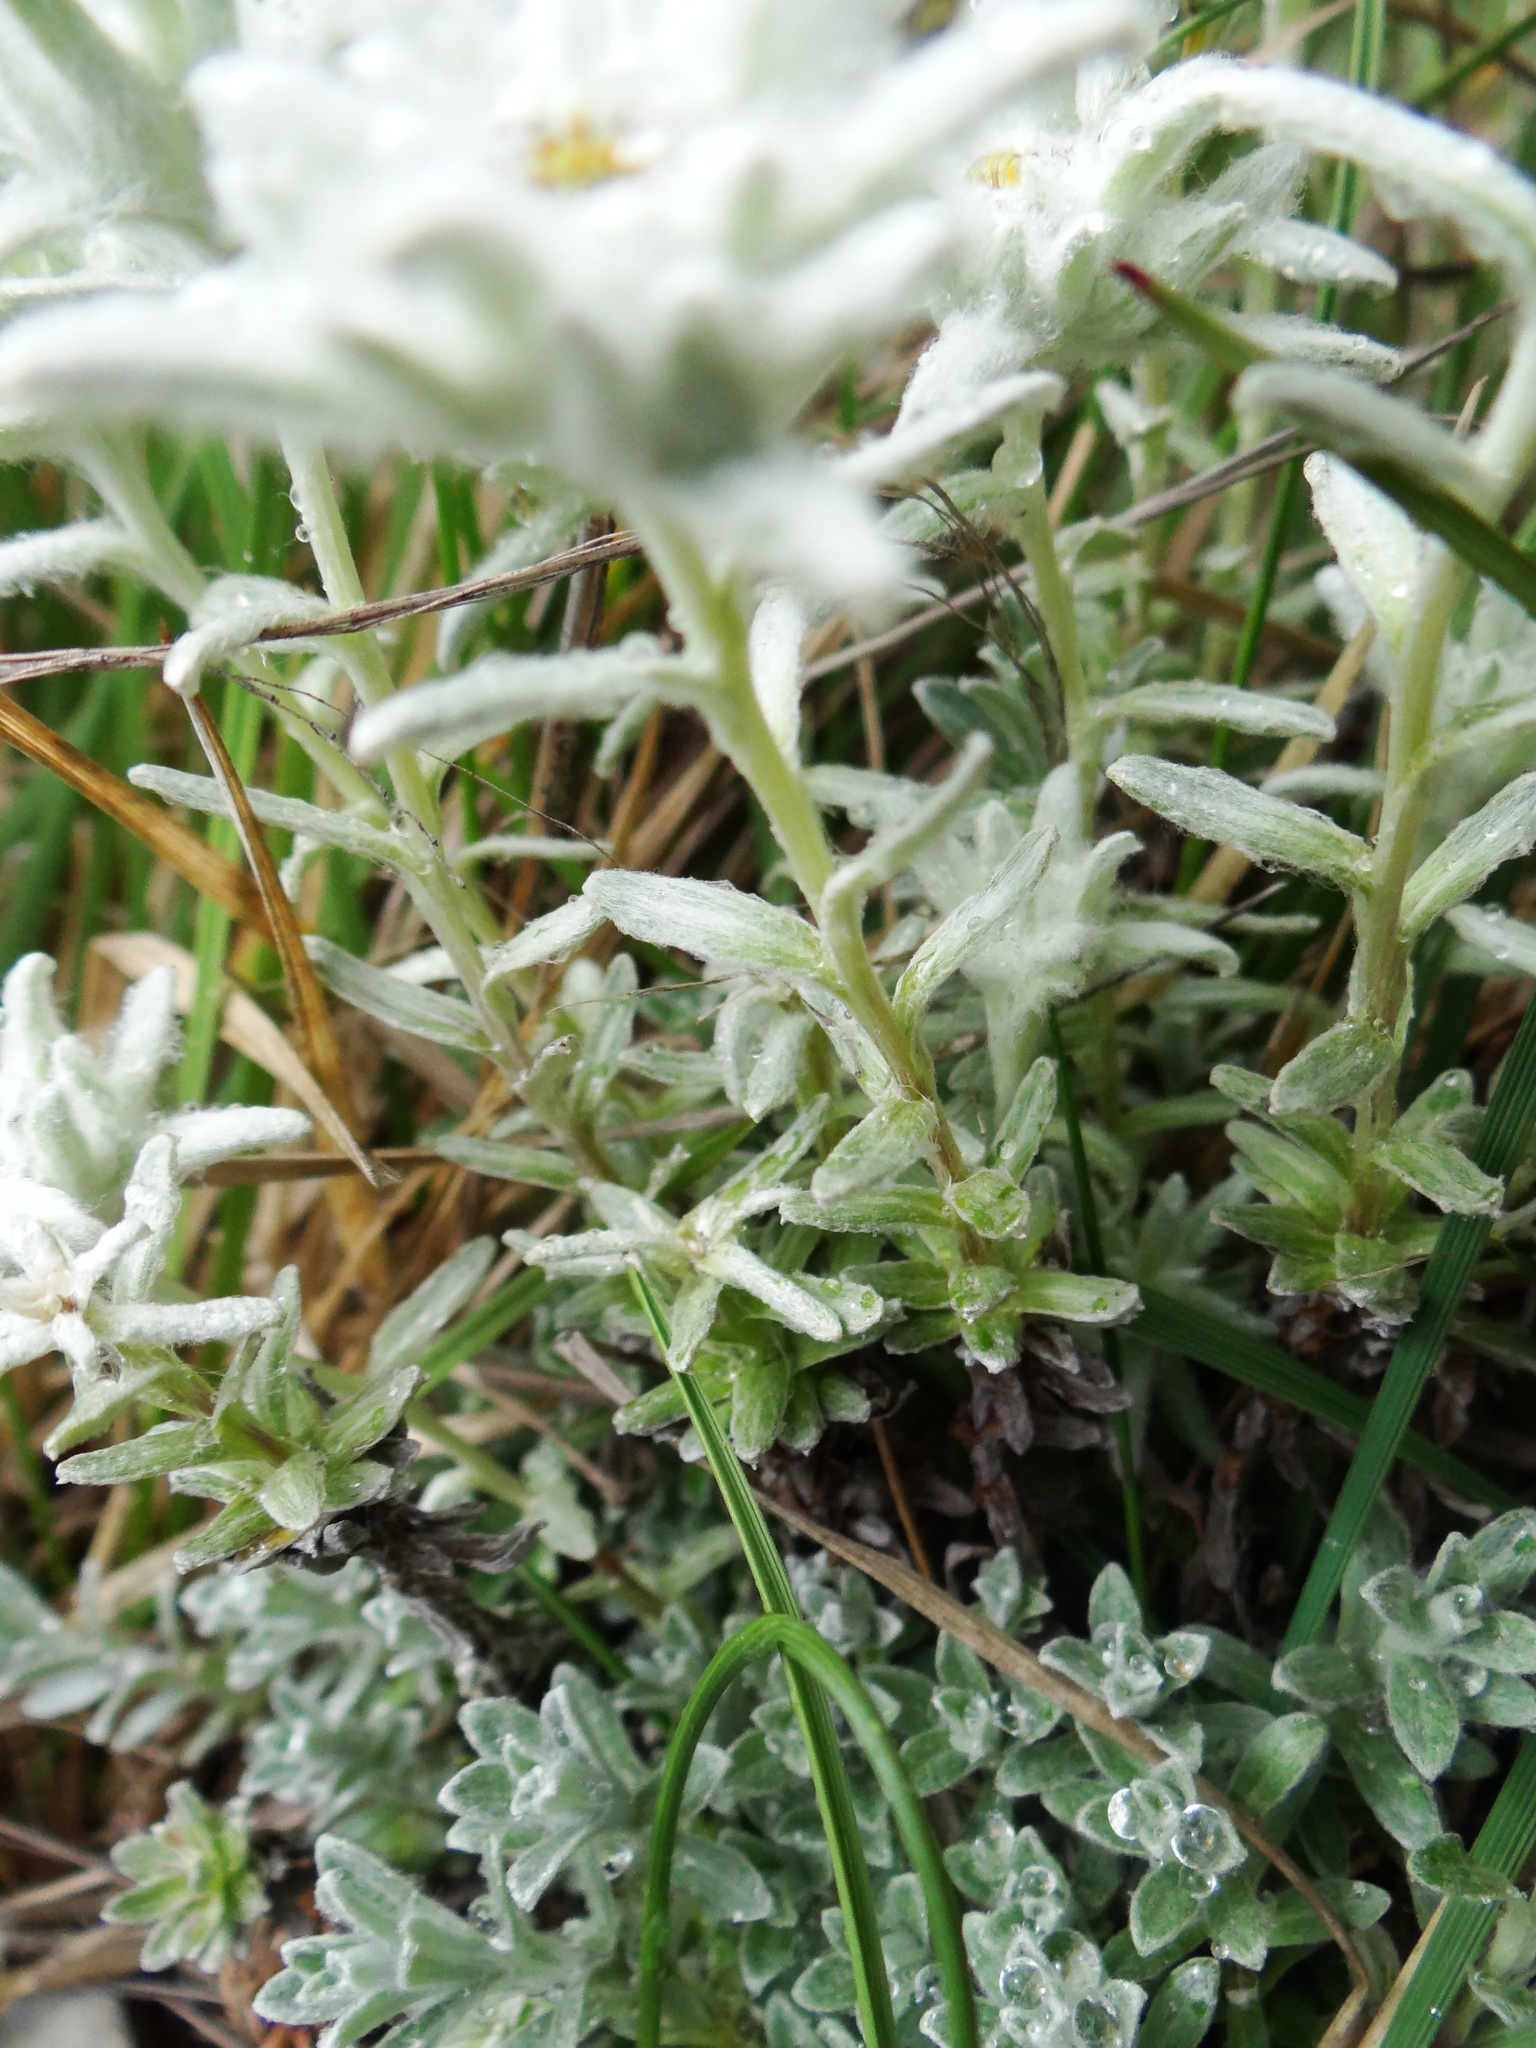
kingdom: Plantae
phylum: Tracheophyta
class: Magnoliopsida
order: Asterales
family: Asteraceae
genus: Leontopodium
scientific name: Leontopodium microphyllum
